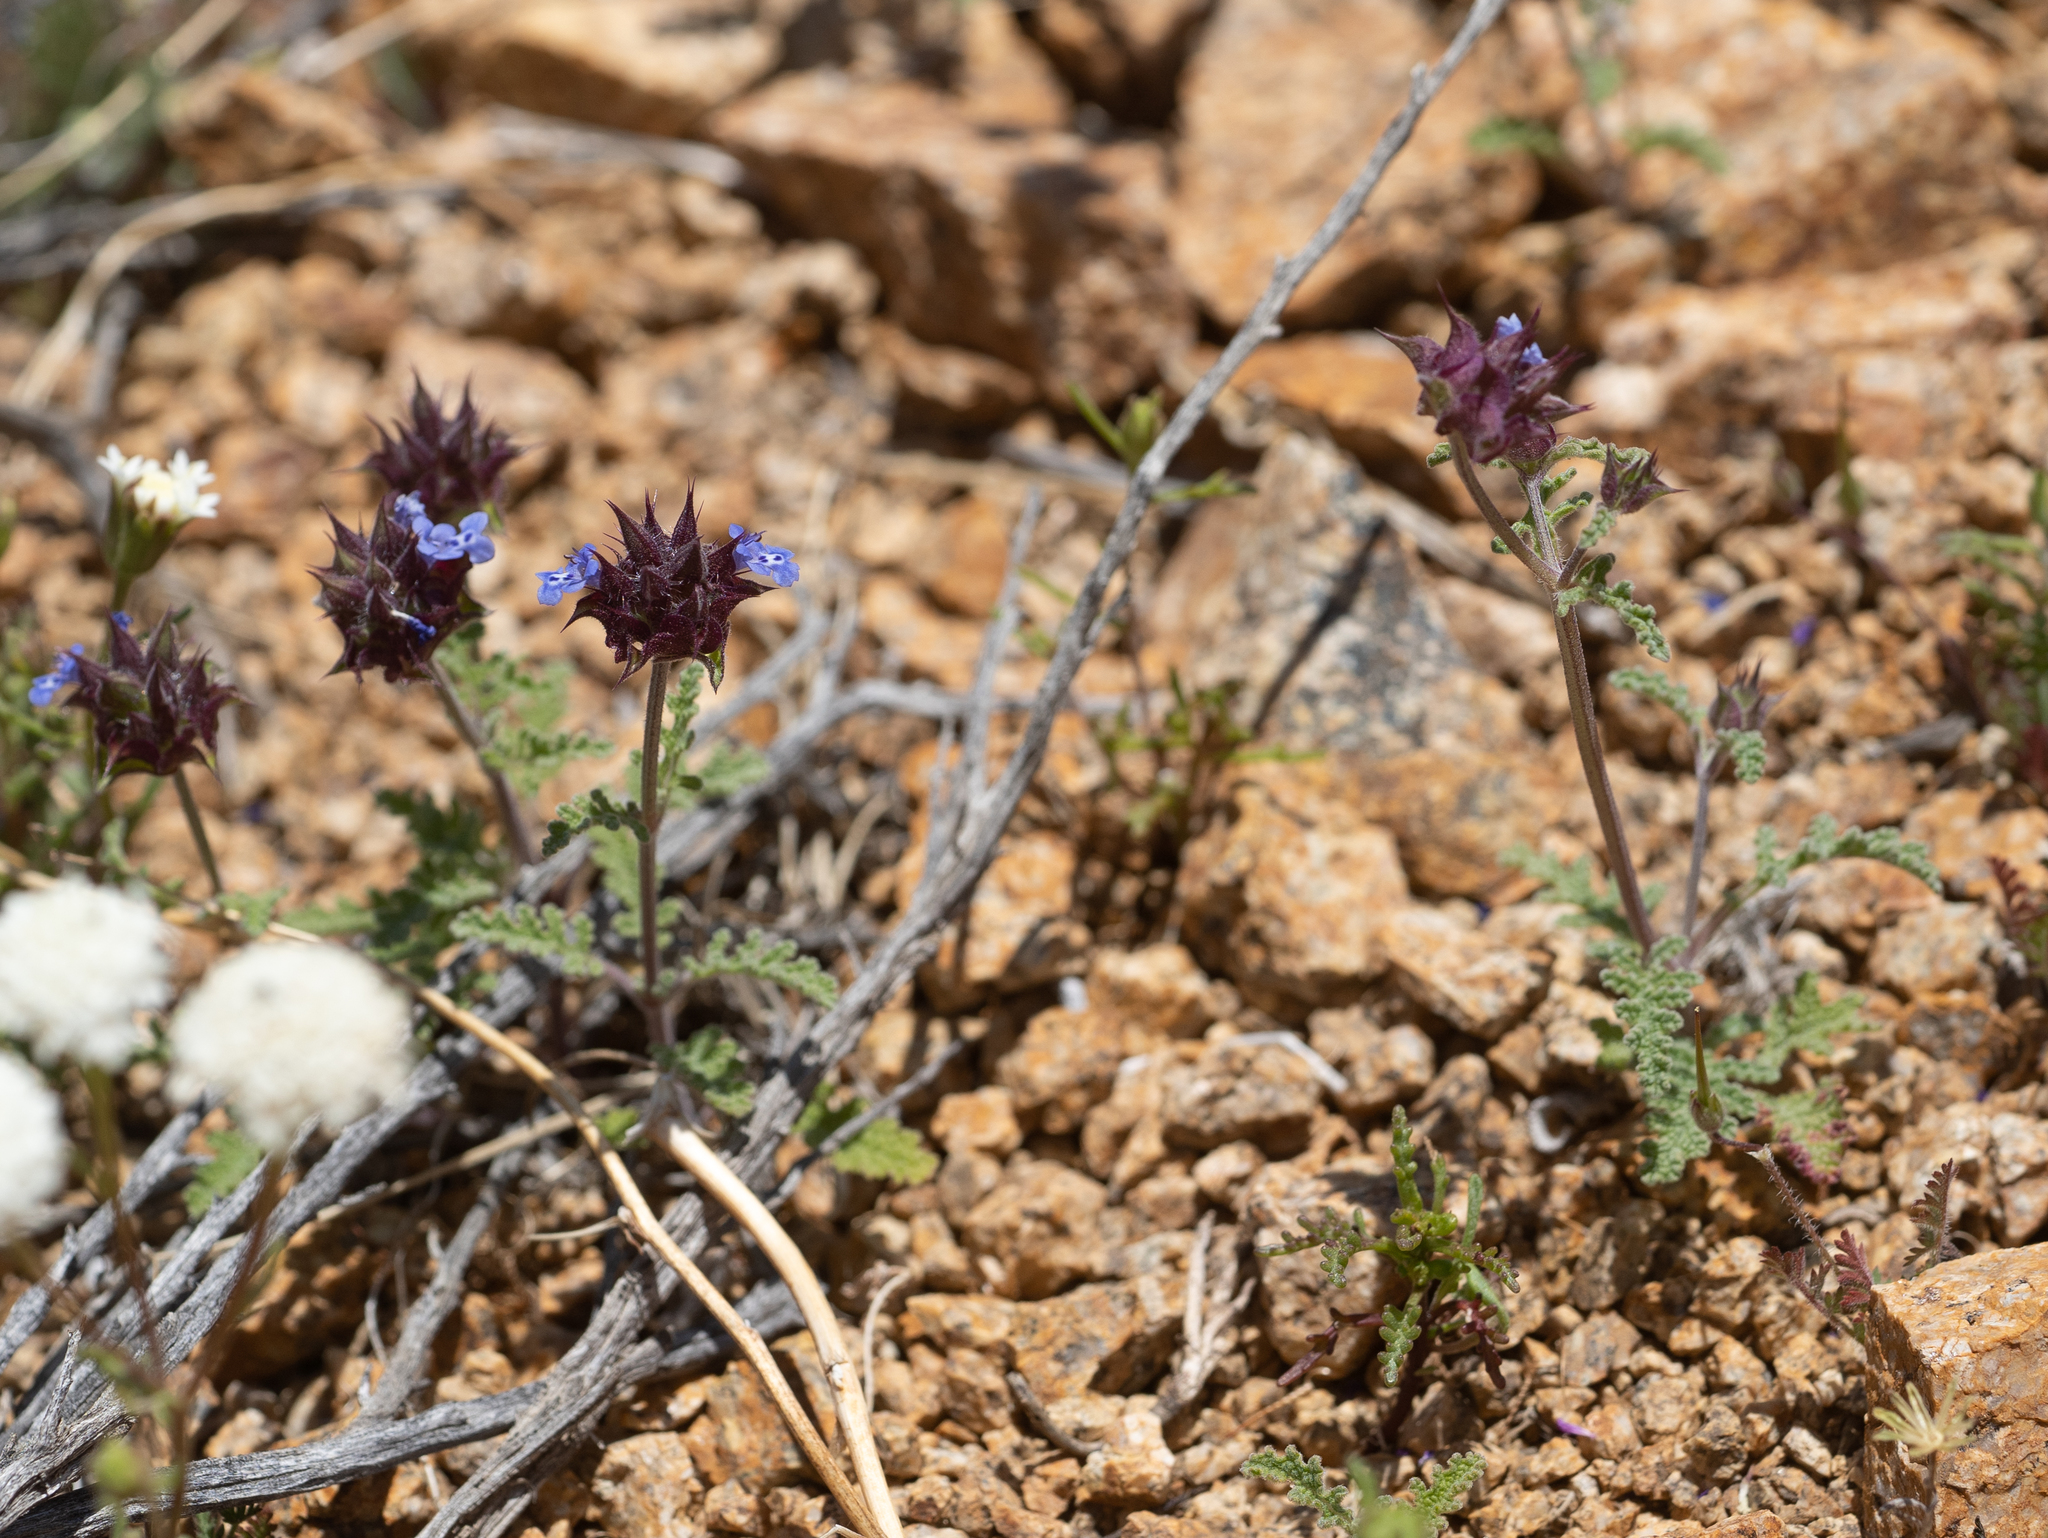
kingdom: Plantae
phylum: Tracheophyta
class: Magnoliopsida
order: Lamiales
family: Lamiaceae
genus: Salvia
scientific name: Salvia columbariae
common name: Chia
